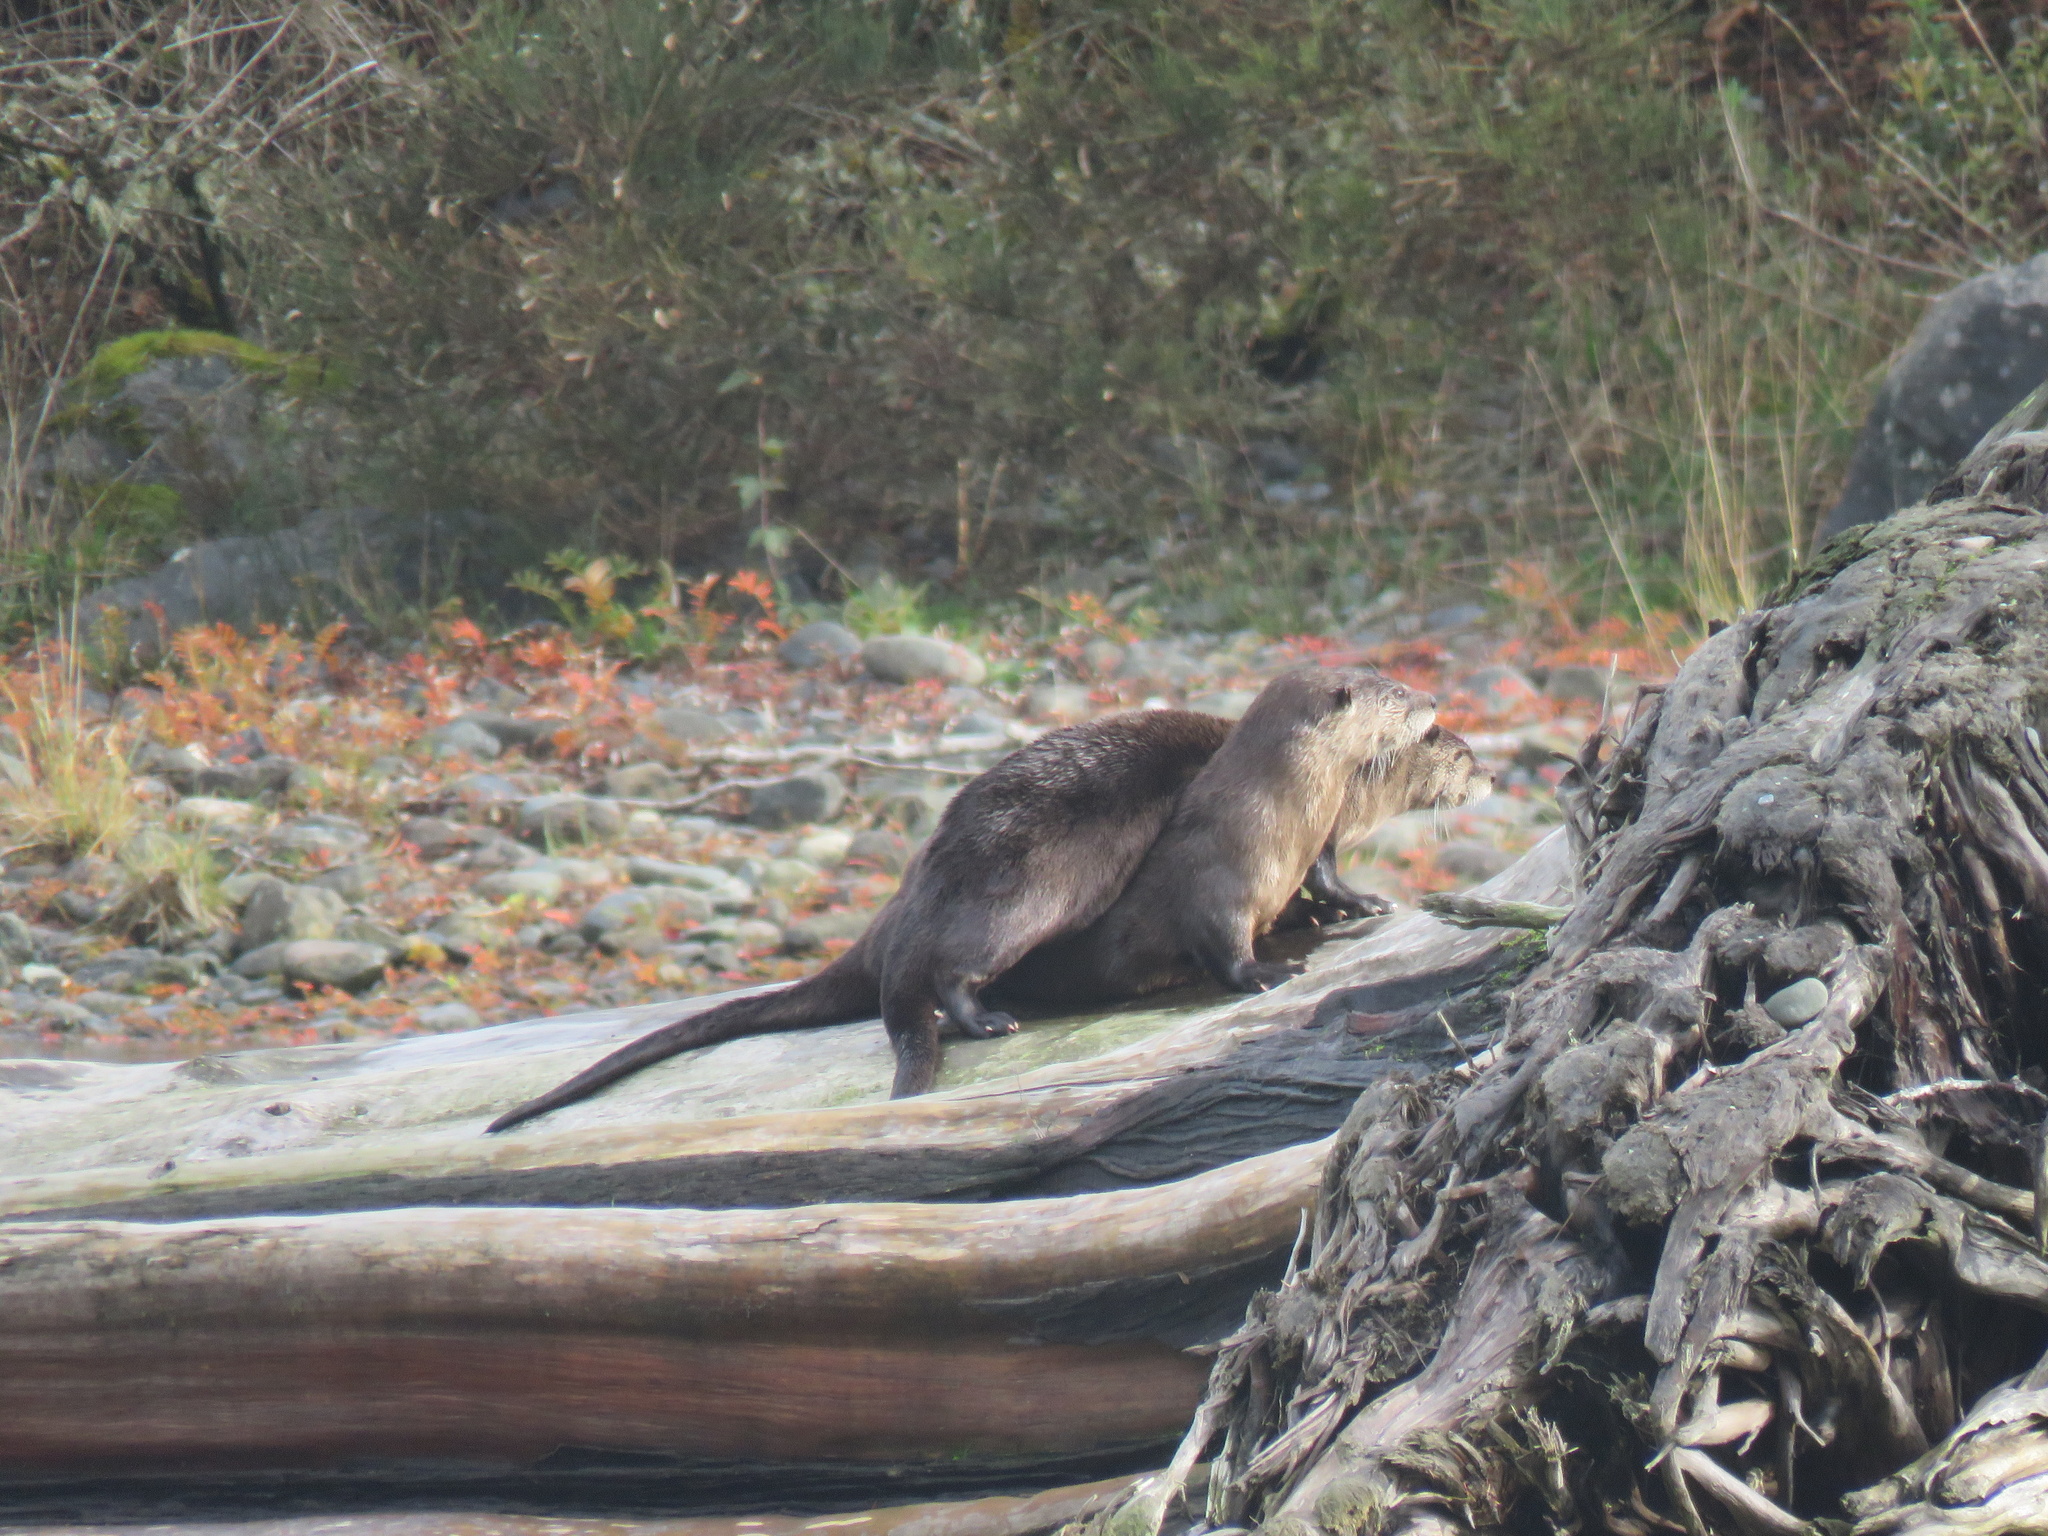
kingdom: Animalia
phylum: Chordata
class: Mammalia
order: Carnivora
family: Mustelidae
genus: Lontra
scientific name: Lontra canadensis
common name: North american river otter
